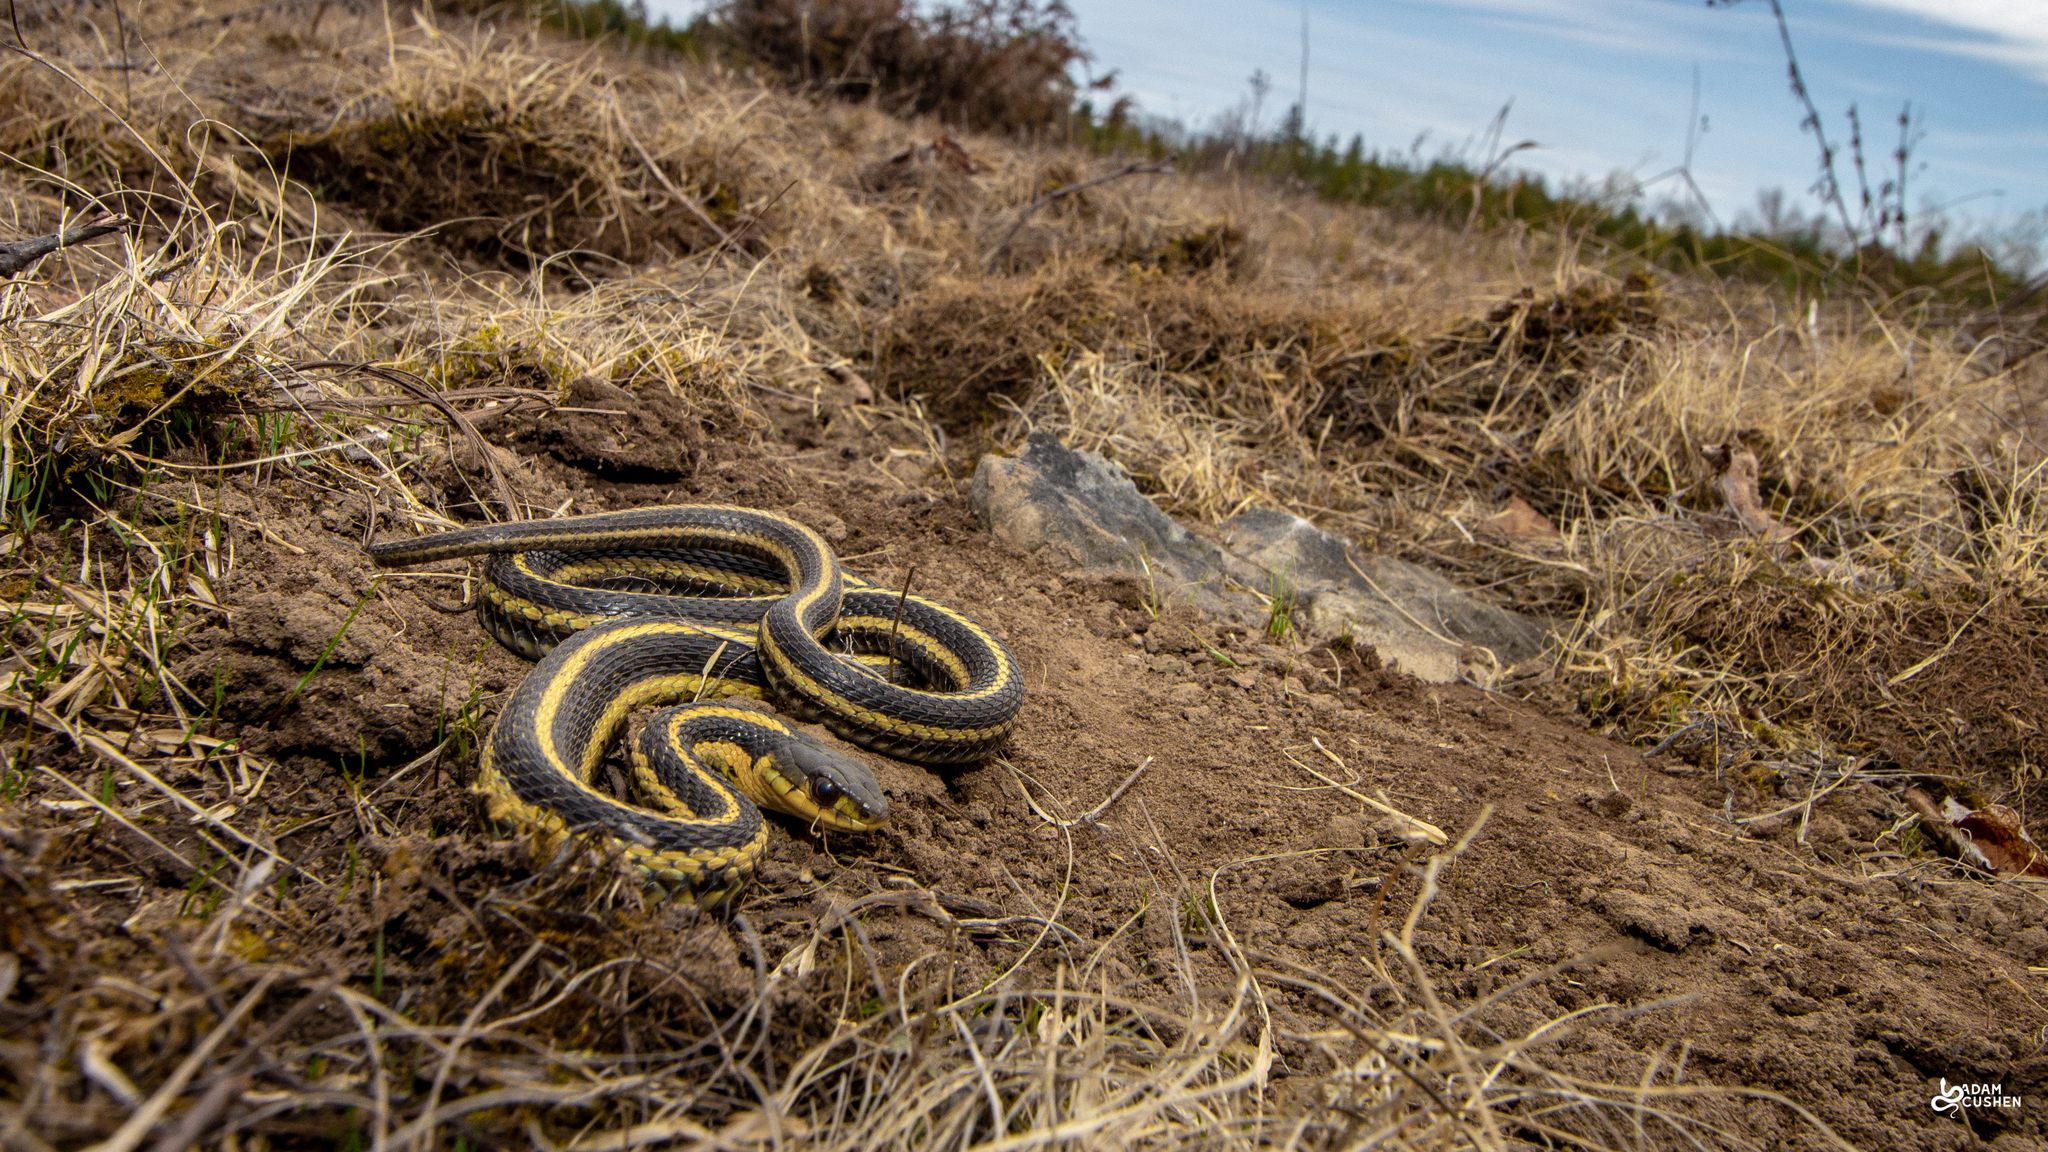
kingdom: Animalia
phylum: Chordata
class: Squamata
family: Colubridae
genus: Thamnophis
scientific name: Thamnophis sirtalis
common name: Common garter snake
